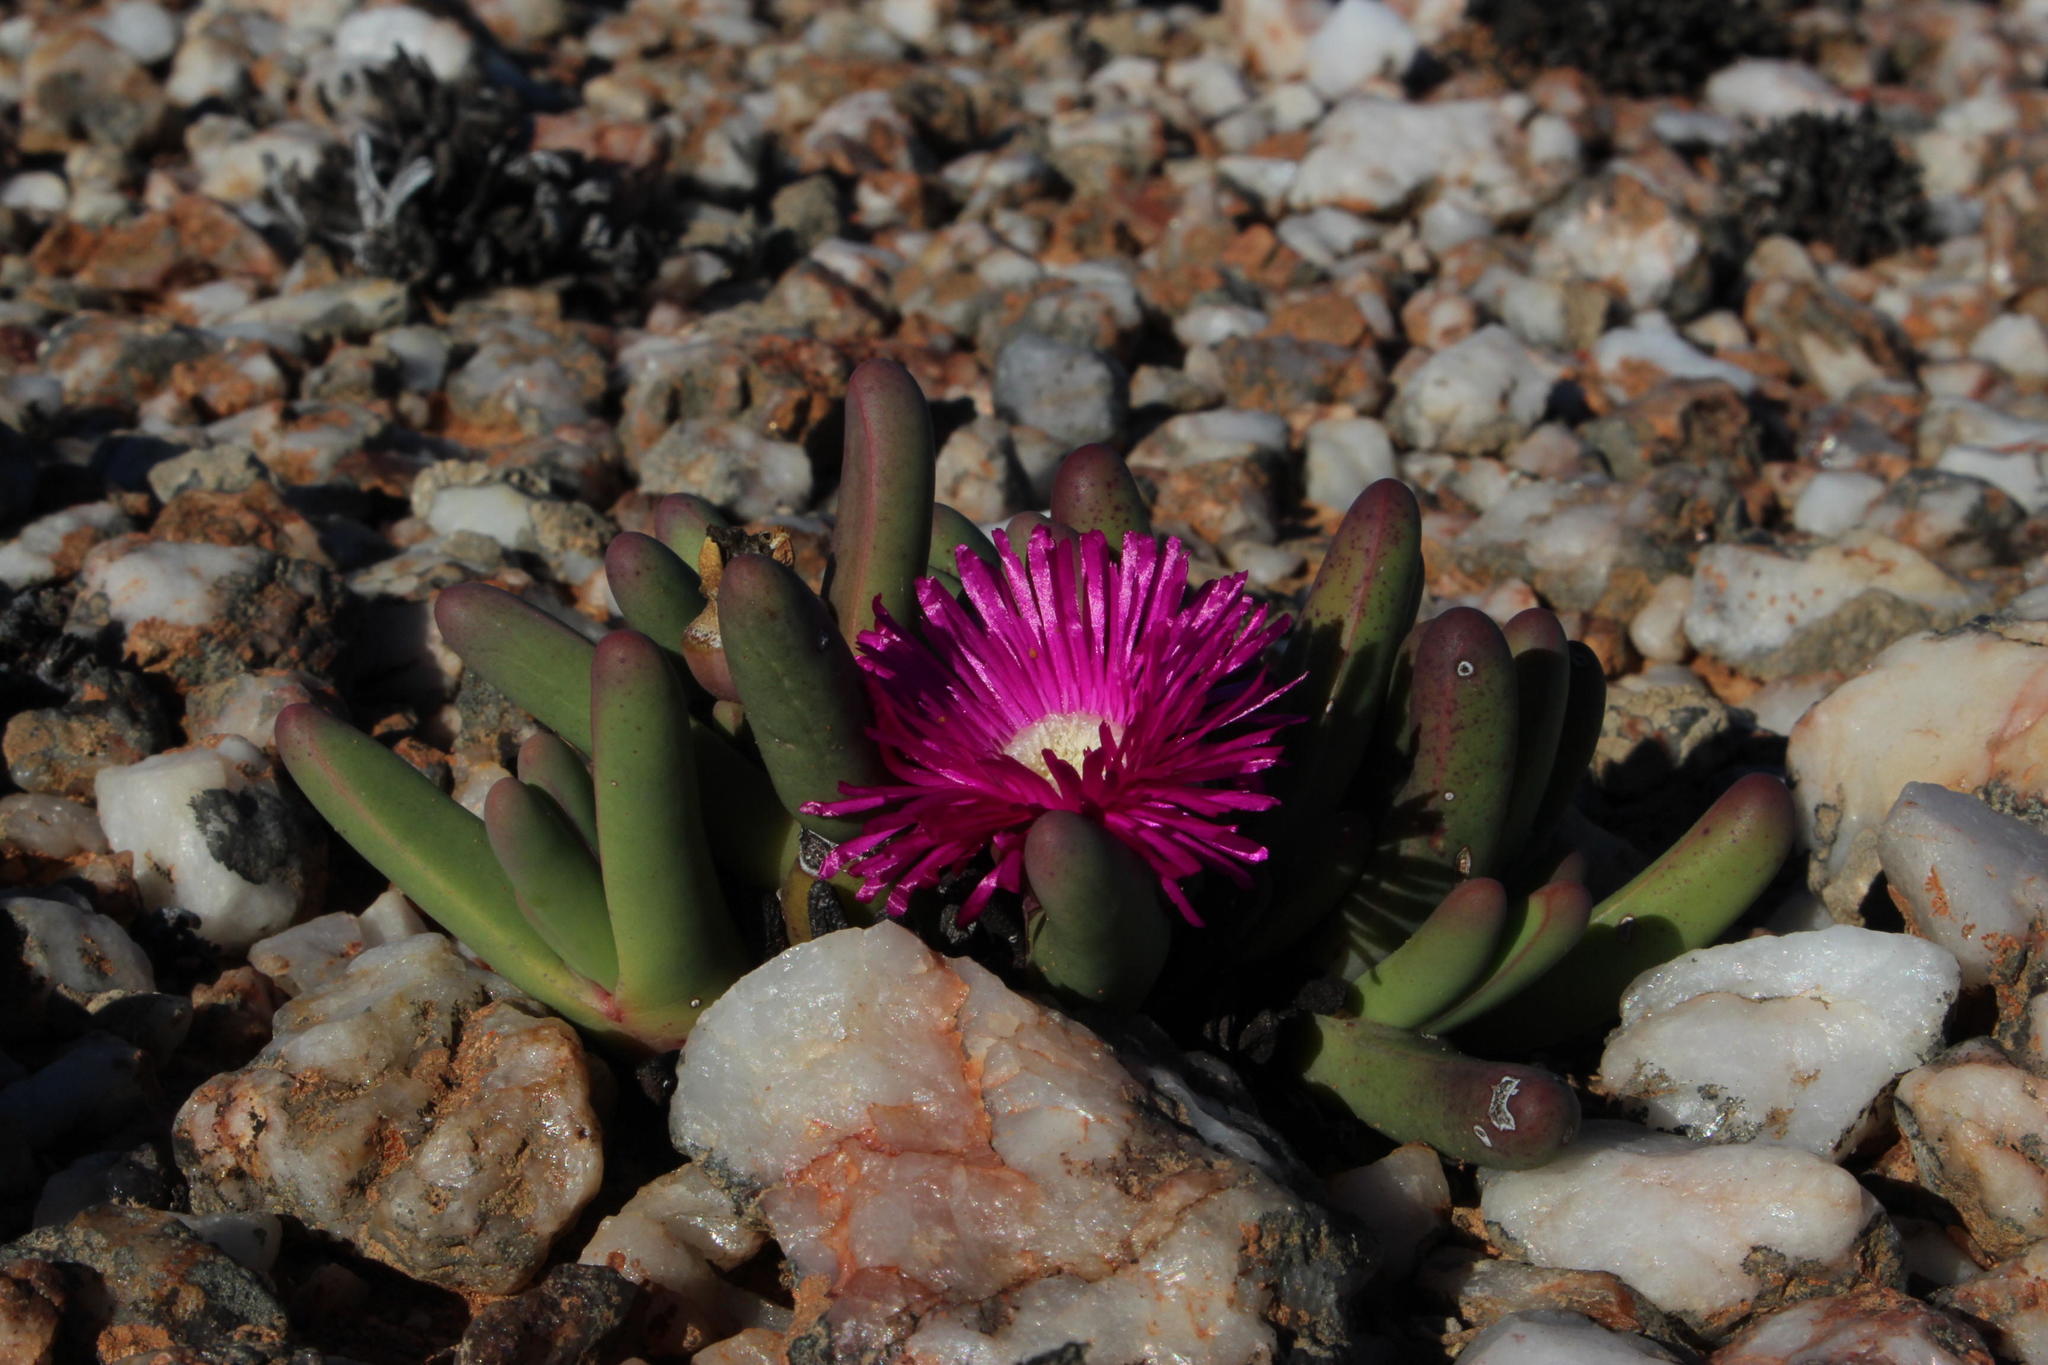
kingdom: Plantae
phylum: Tracheophyta
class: Magnoliopsida
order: Caryophyllales
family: Aizoaceae
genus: Argyroderma
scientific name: Argyroderma fissum
